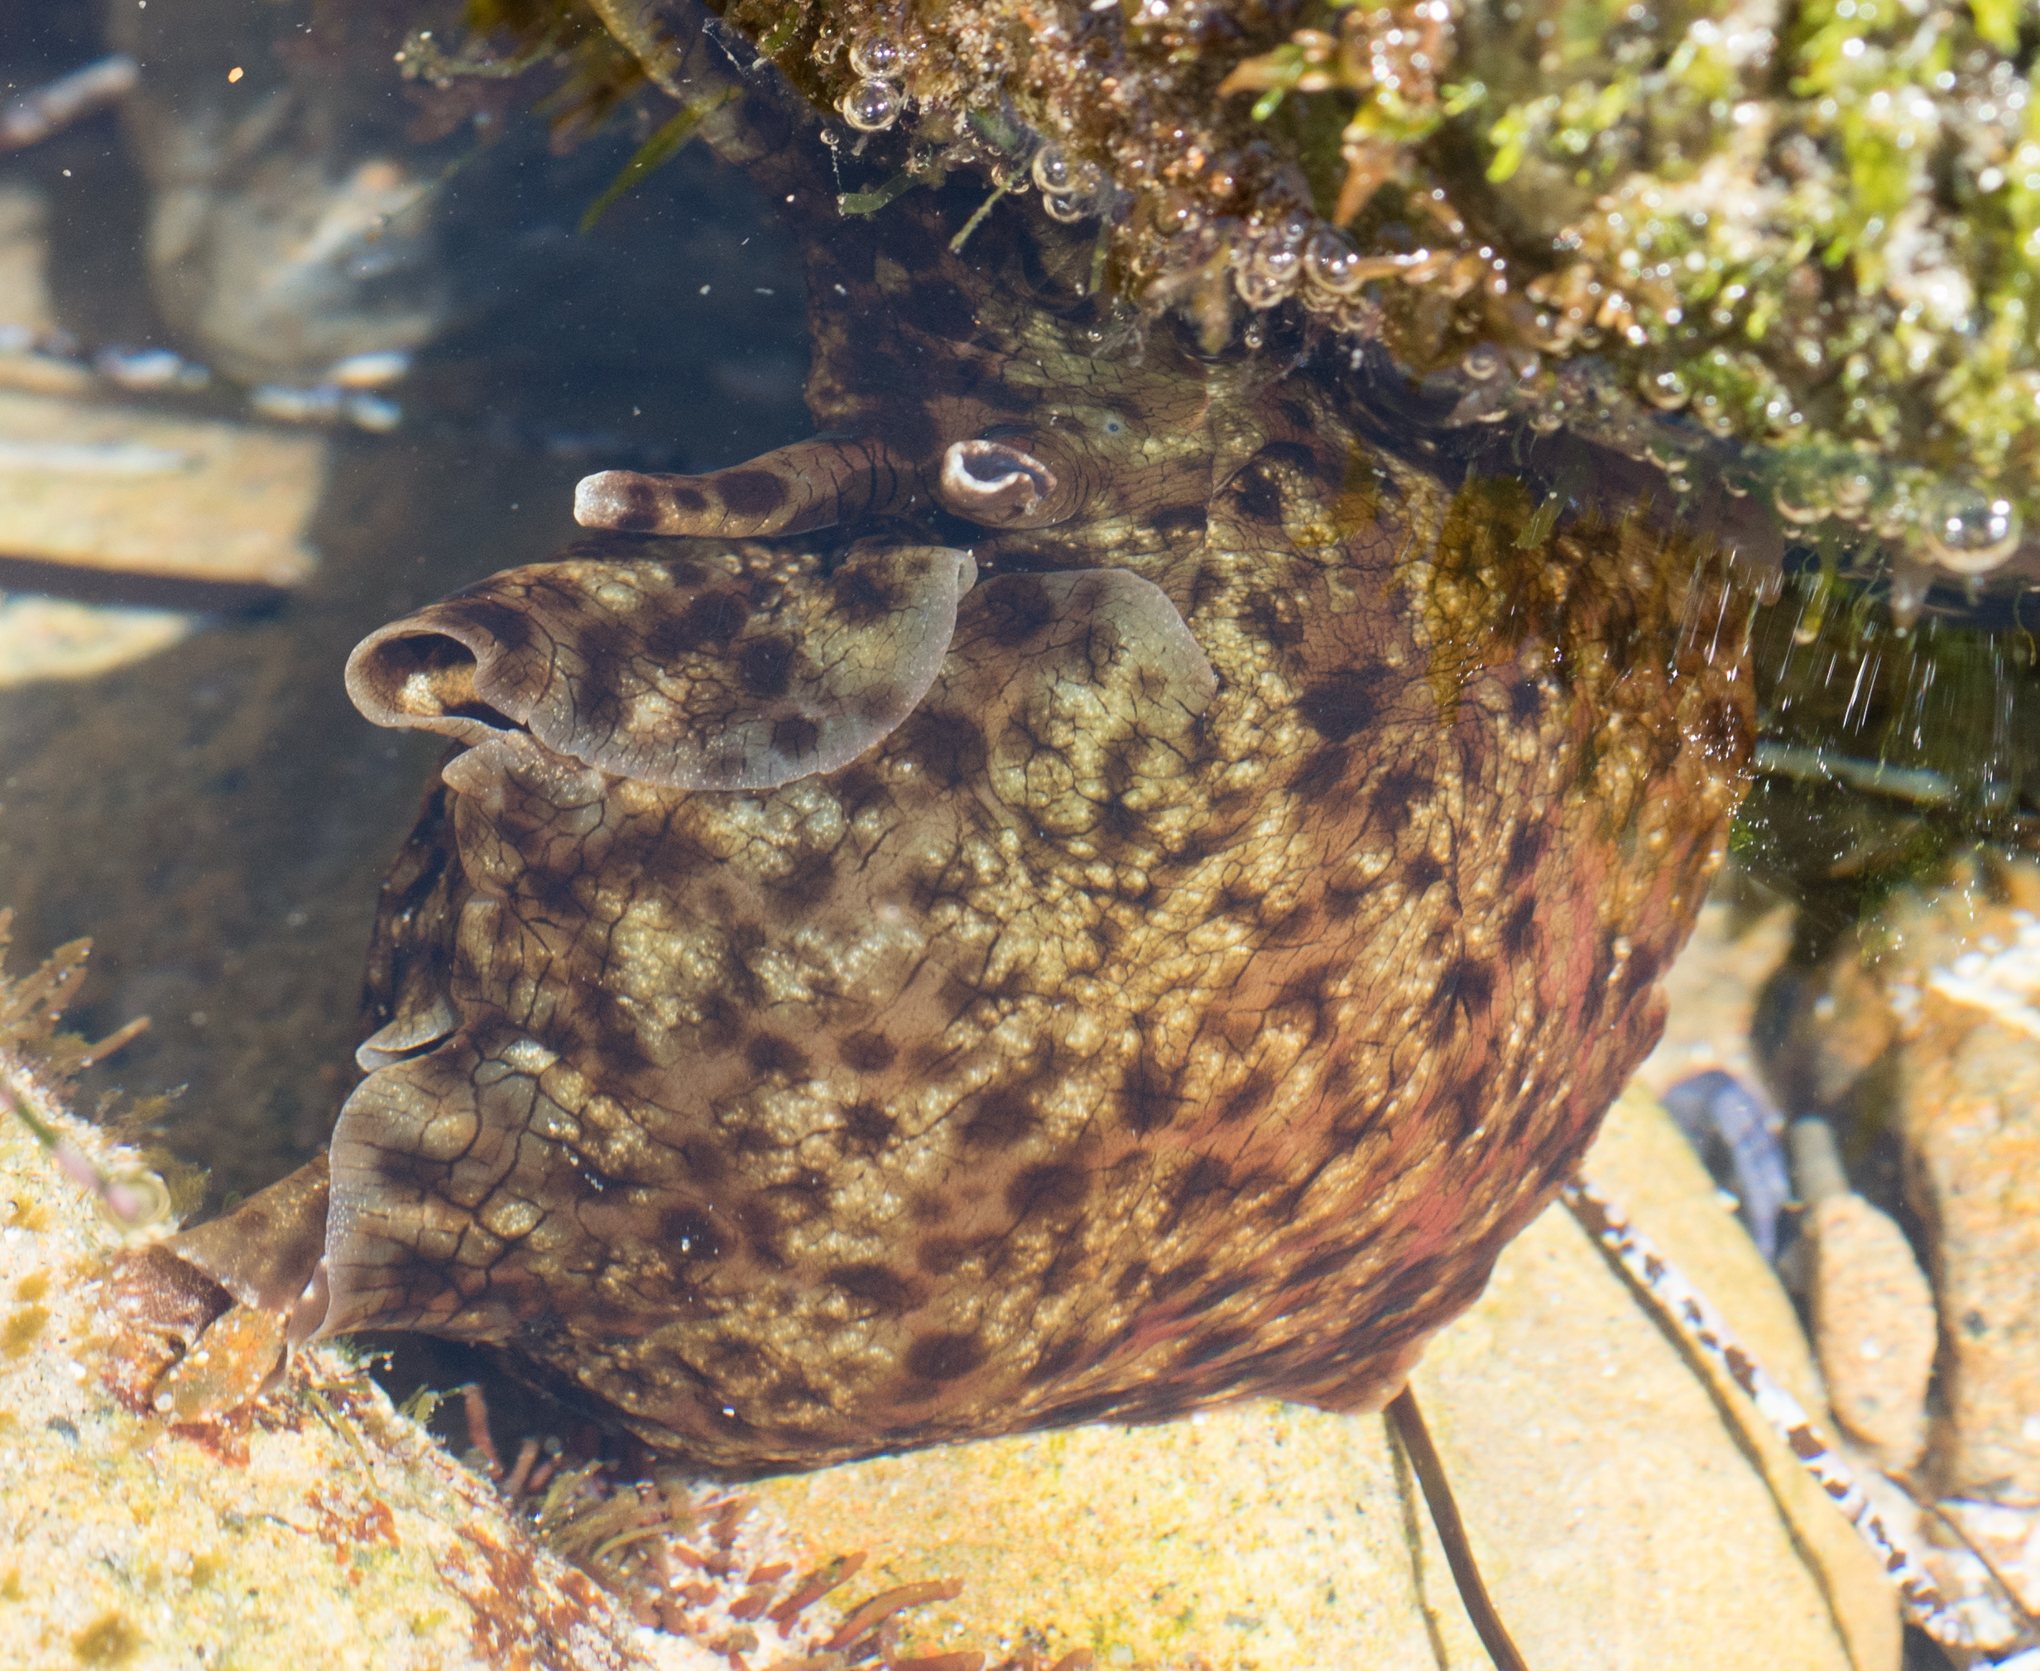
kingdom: Animalia
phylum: Mollusca
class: Gastropoda
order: Aplysiida
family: Aplysiidae
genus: Aplysia
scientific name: Aplysia californica
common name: California seahare
